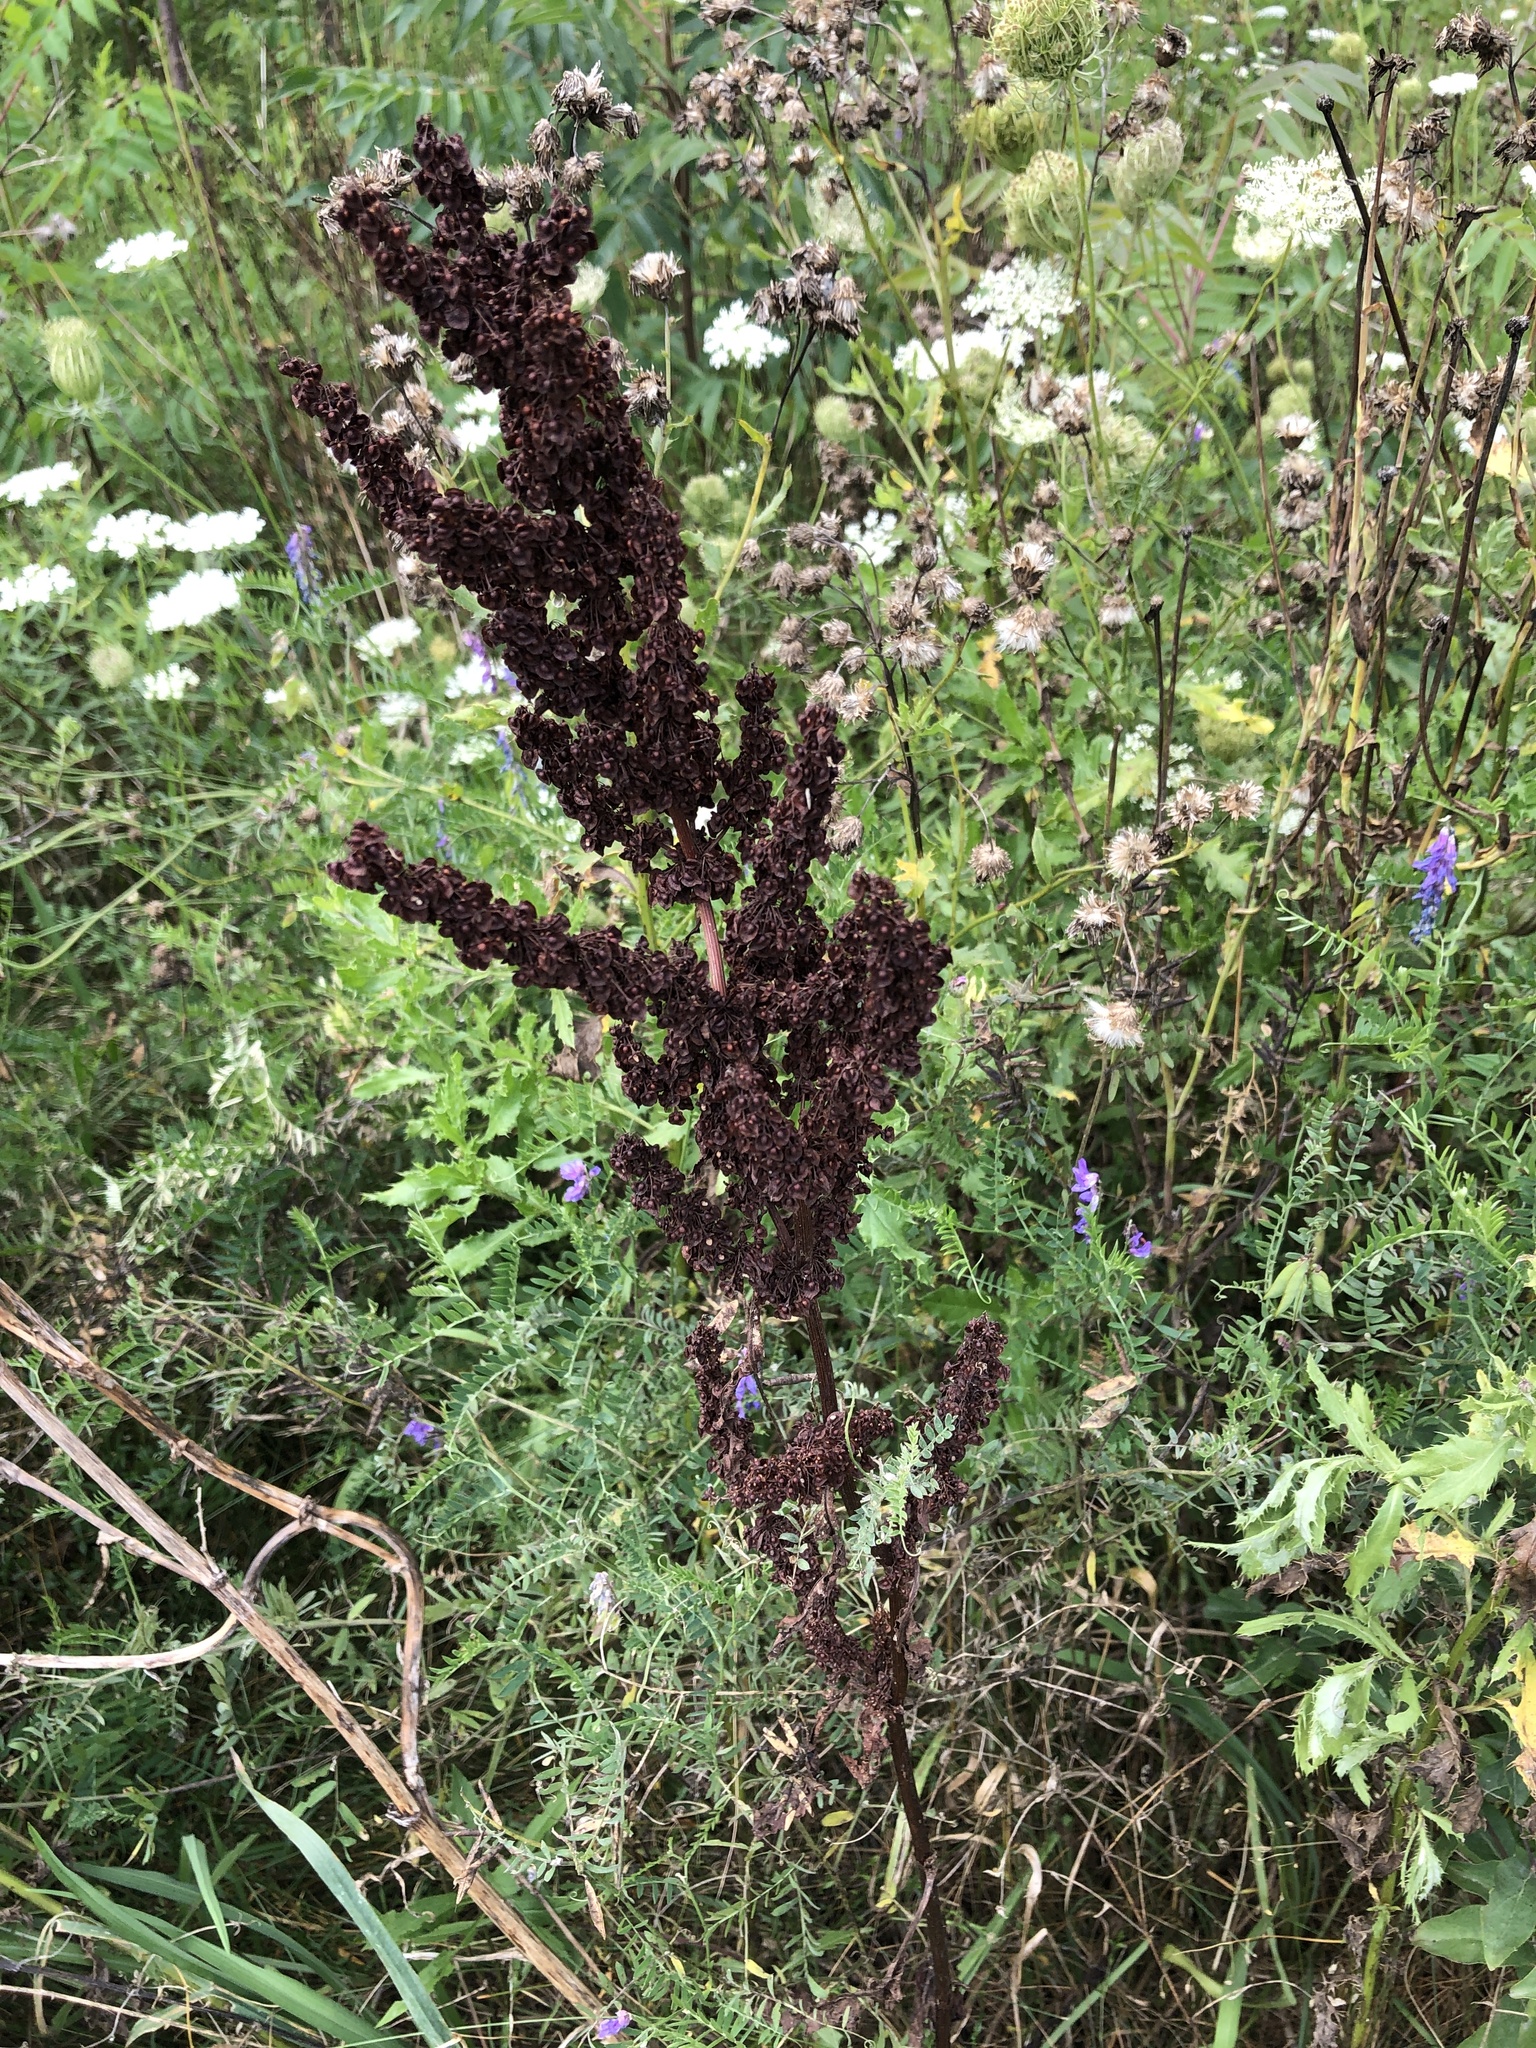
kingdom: Plantae
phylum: Tracheophyta
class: Magnoliopsida
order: Caryophyllales
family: Polygonaceae
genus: Rumex
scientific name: Rumex crispus
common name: Curled dock
